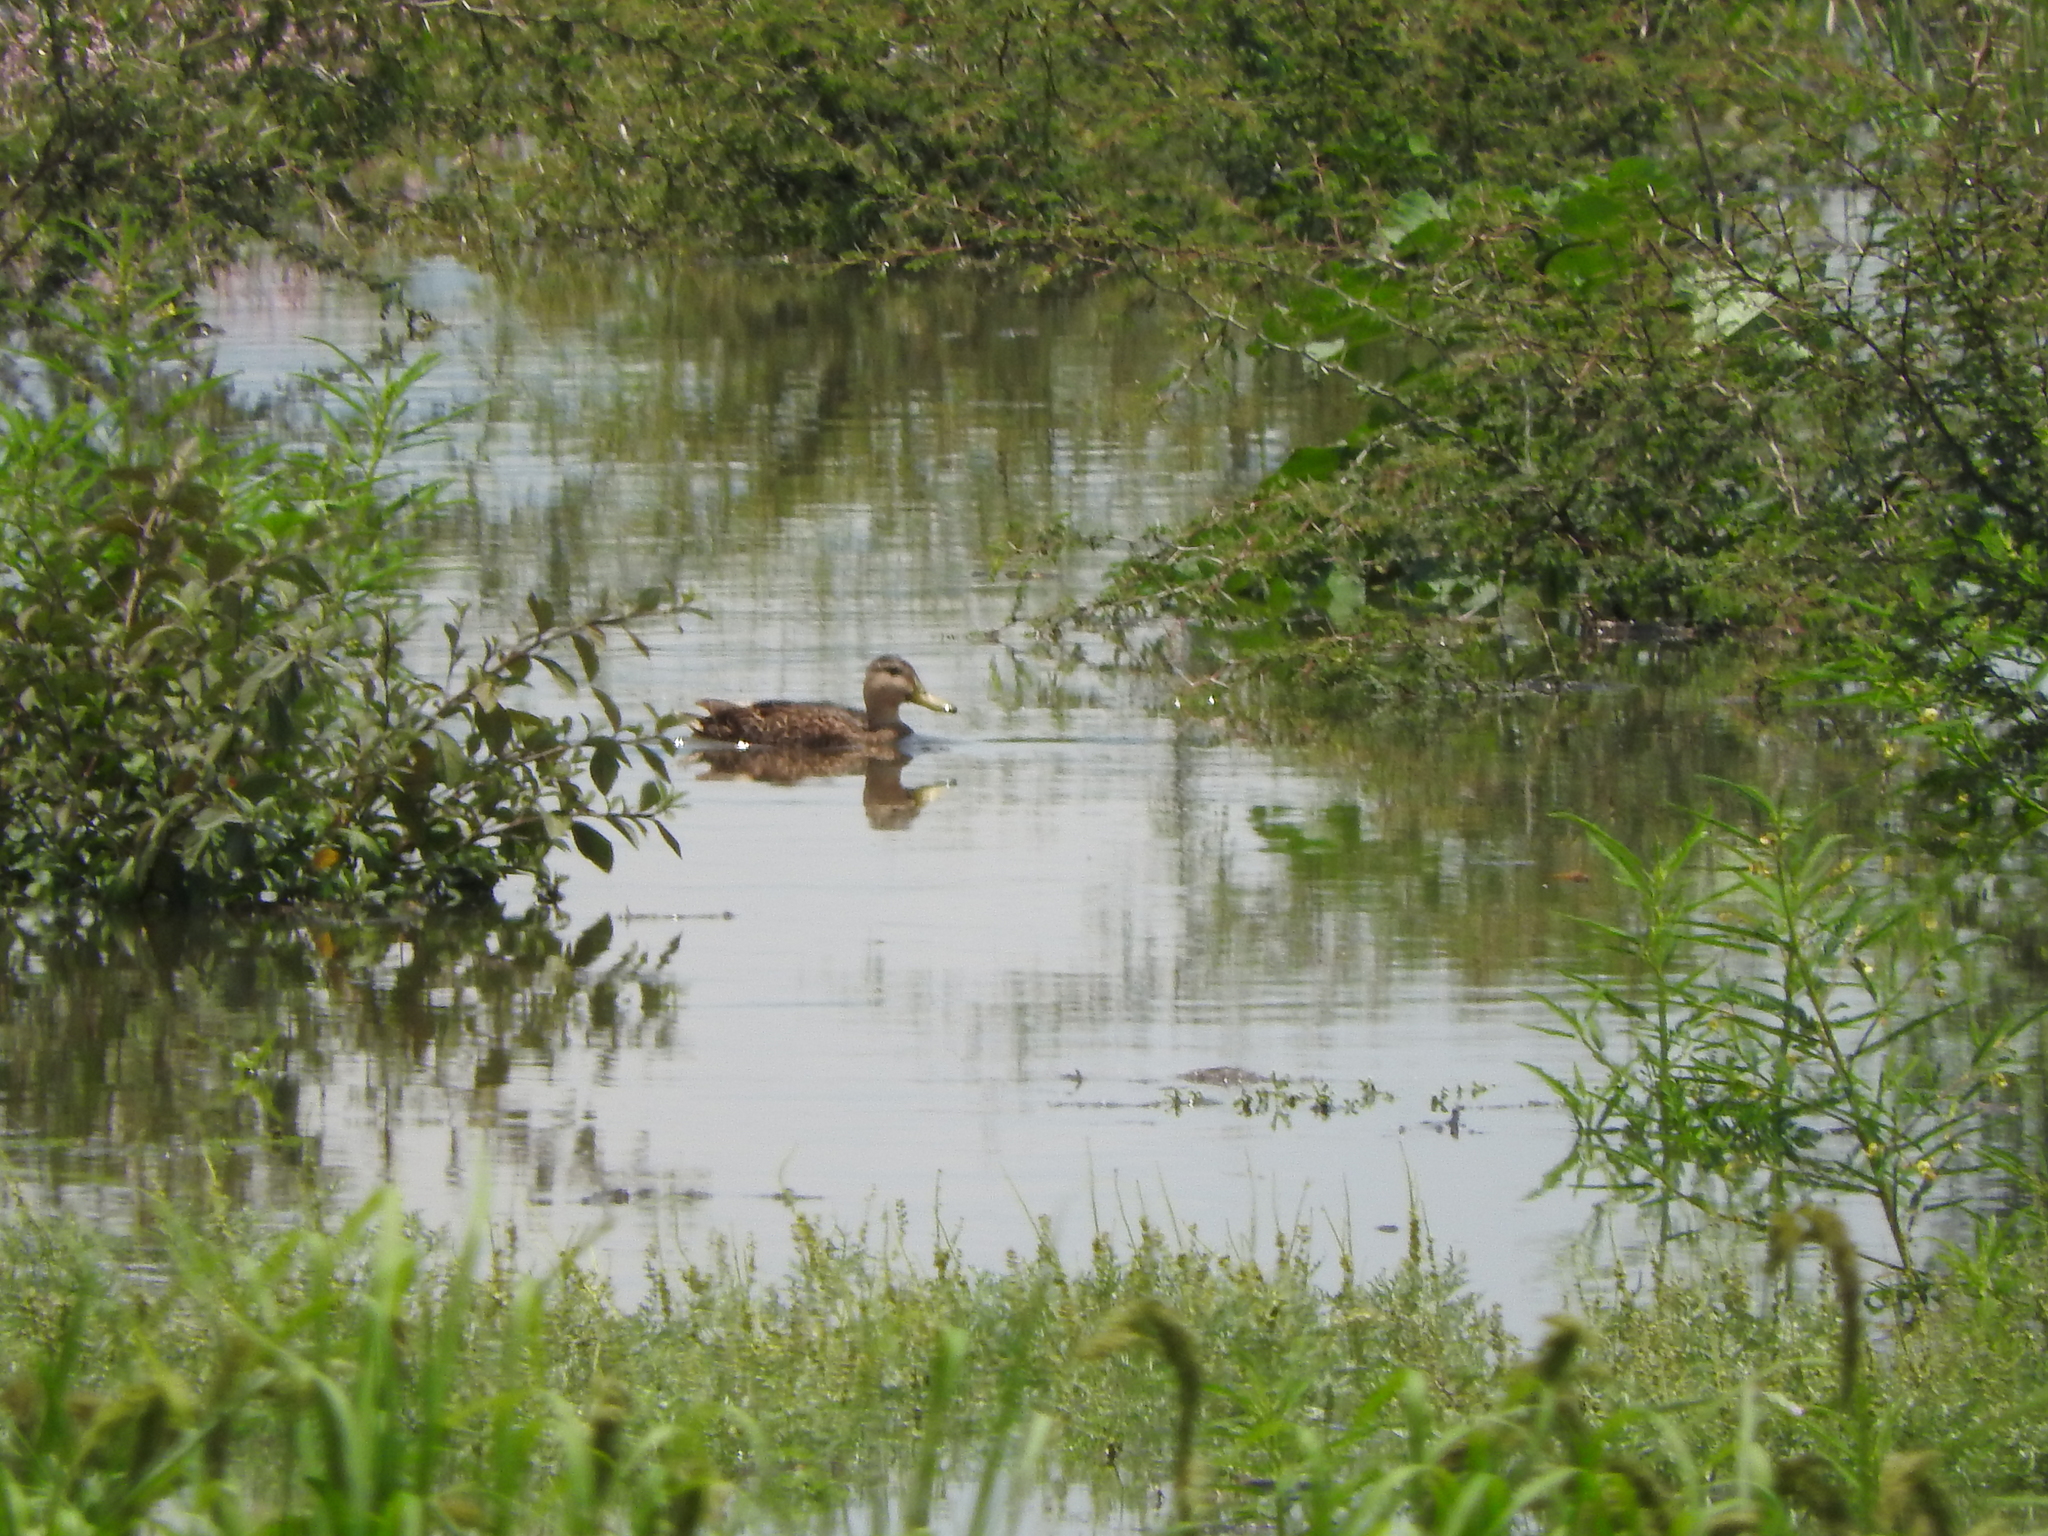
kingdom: Animalia
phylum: Chordata
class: Aves
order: Anseriformes
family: Anatidae
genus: Anas
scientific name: Anas diazi
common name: Mexican duck
